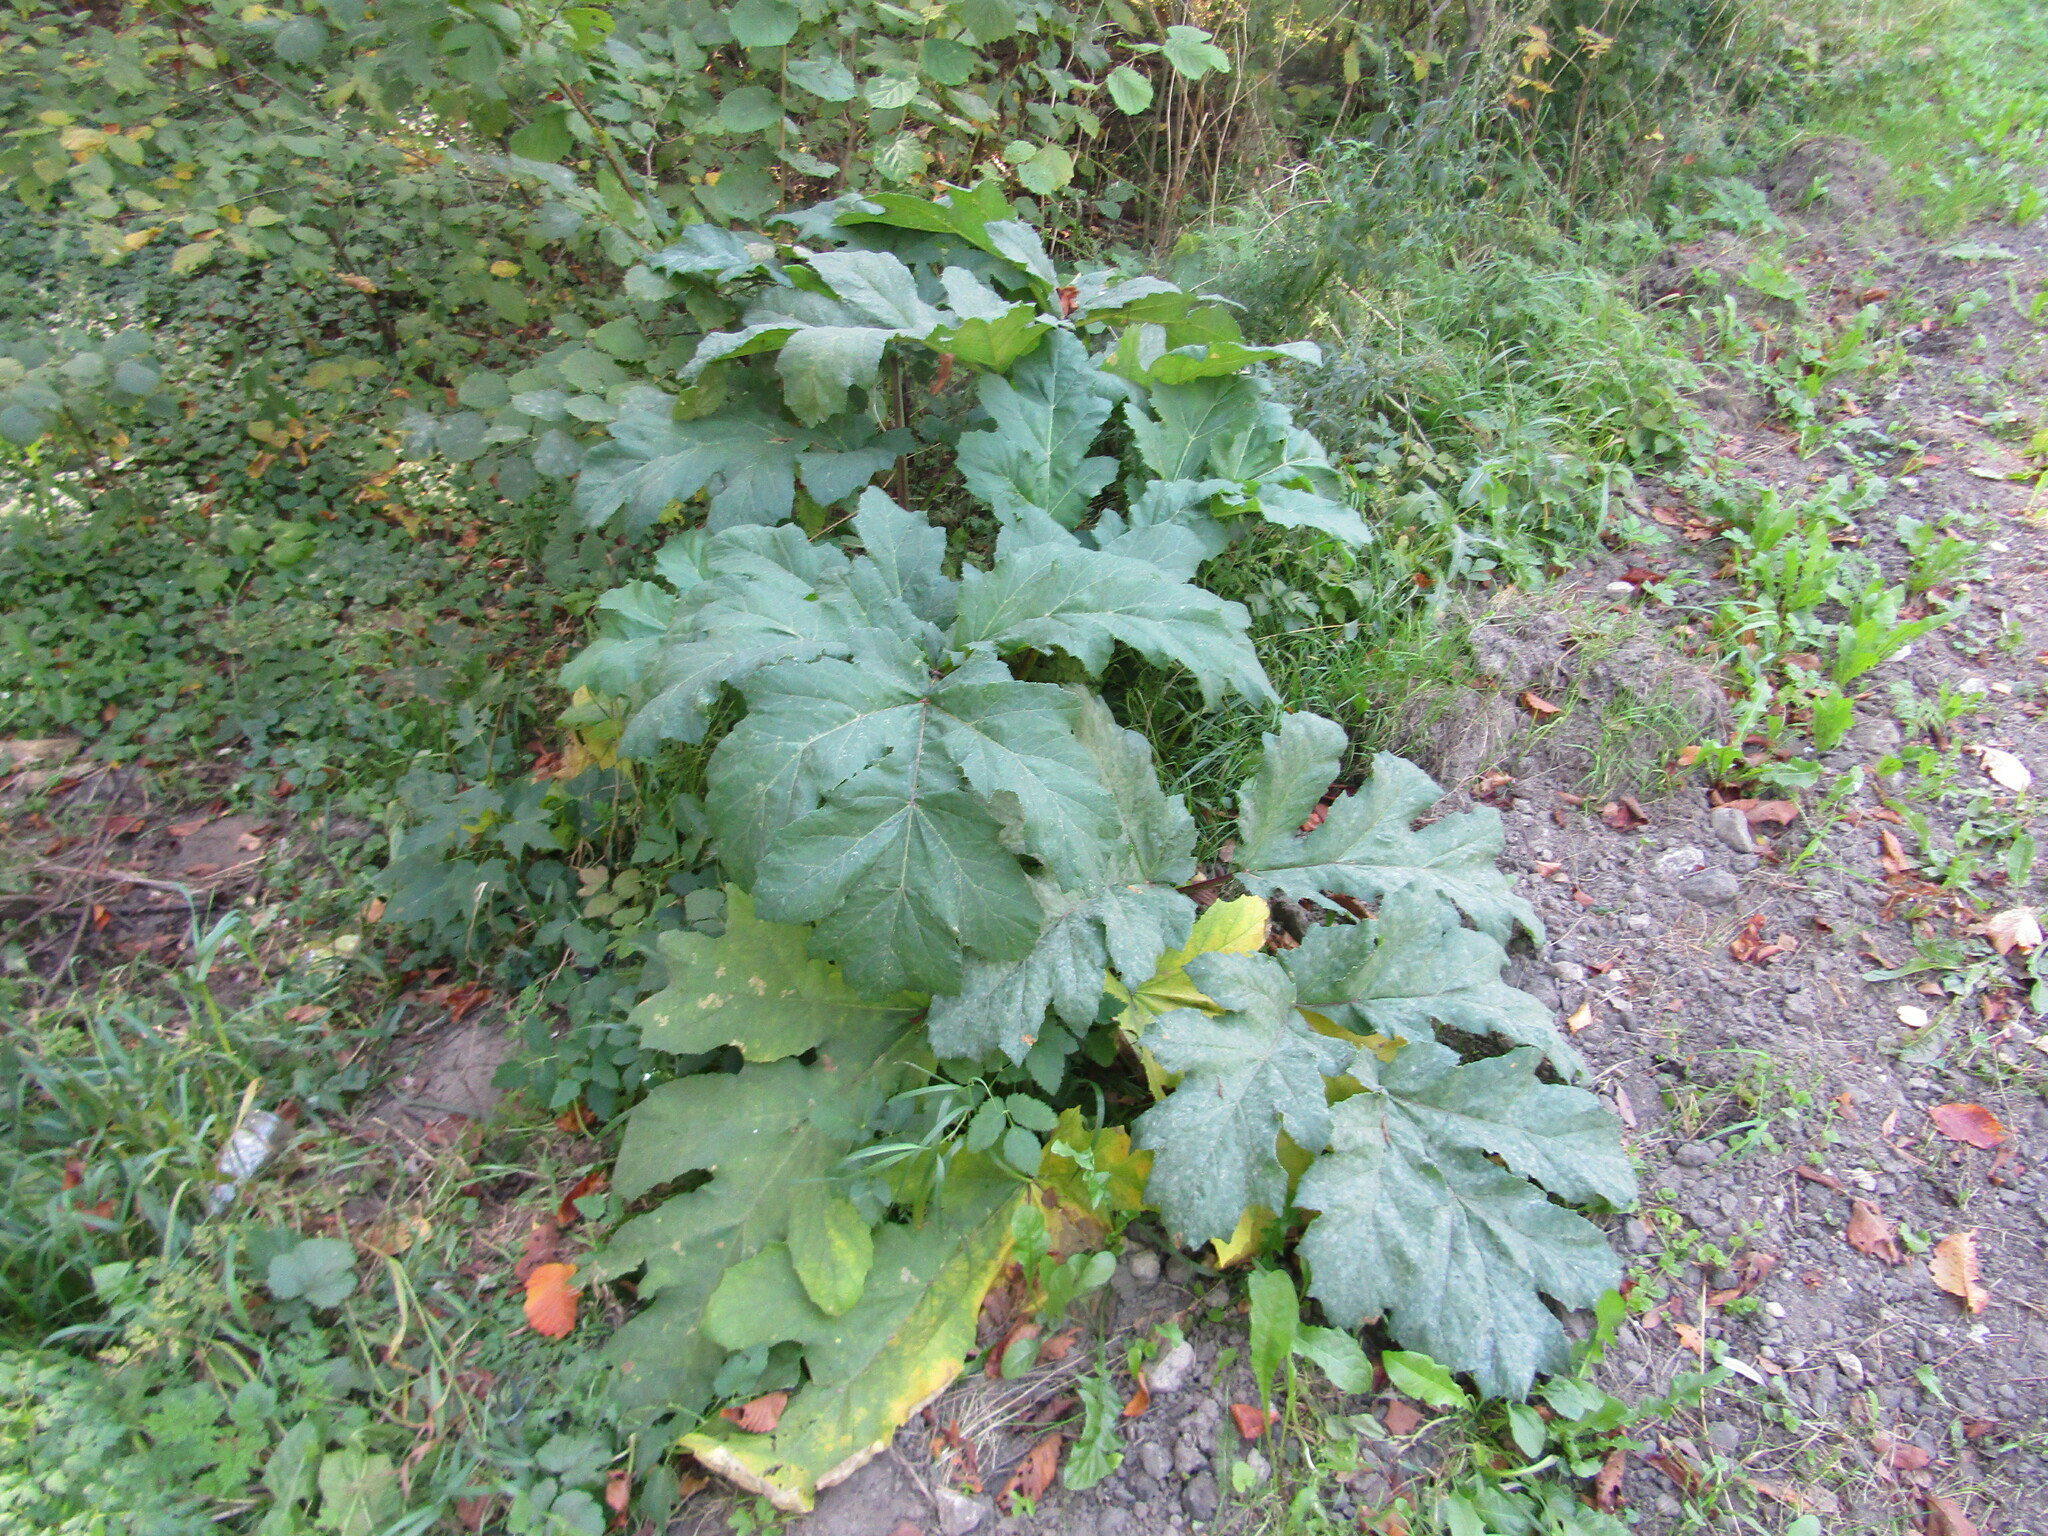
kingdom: Plantae
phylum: Tracheophyta
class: Magnoliopsida
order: Apiales
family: Apiaceae
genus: Heracleum
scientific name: Heracleum sosnowskyi
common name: Sosnowsky's hogweed
